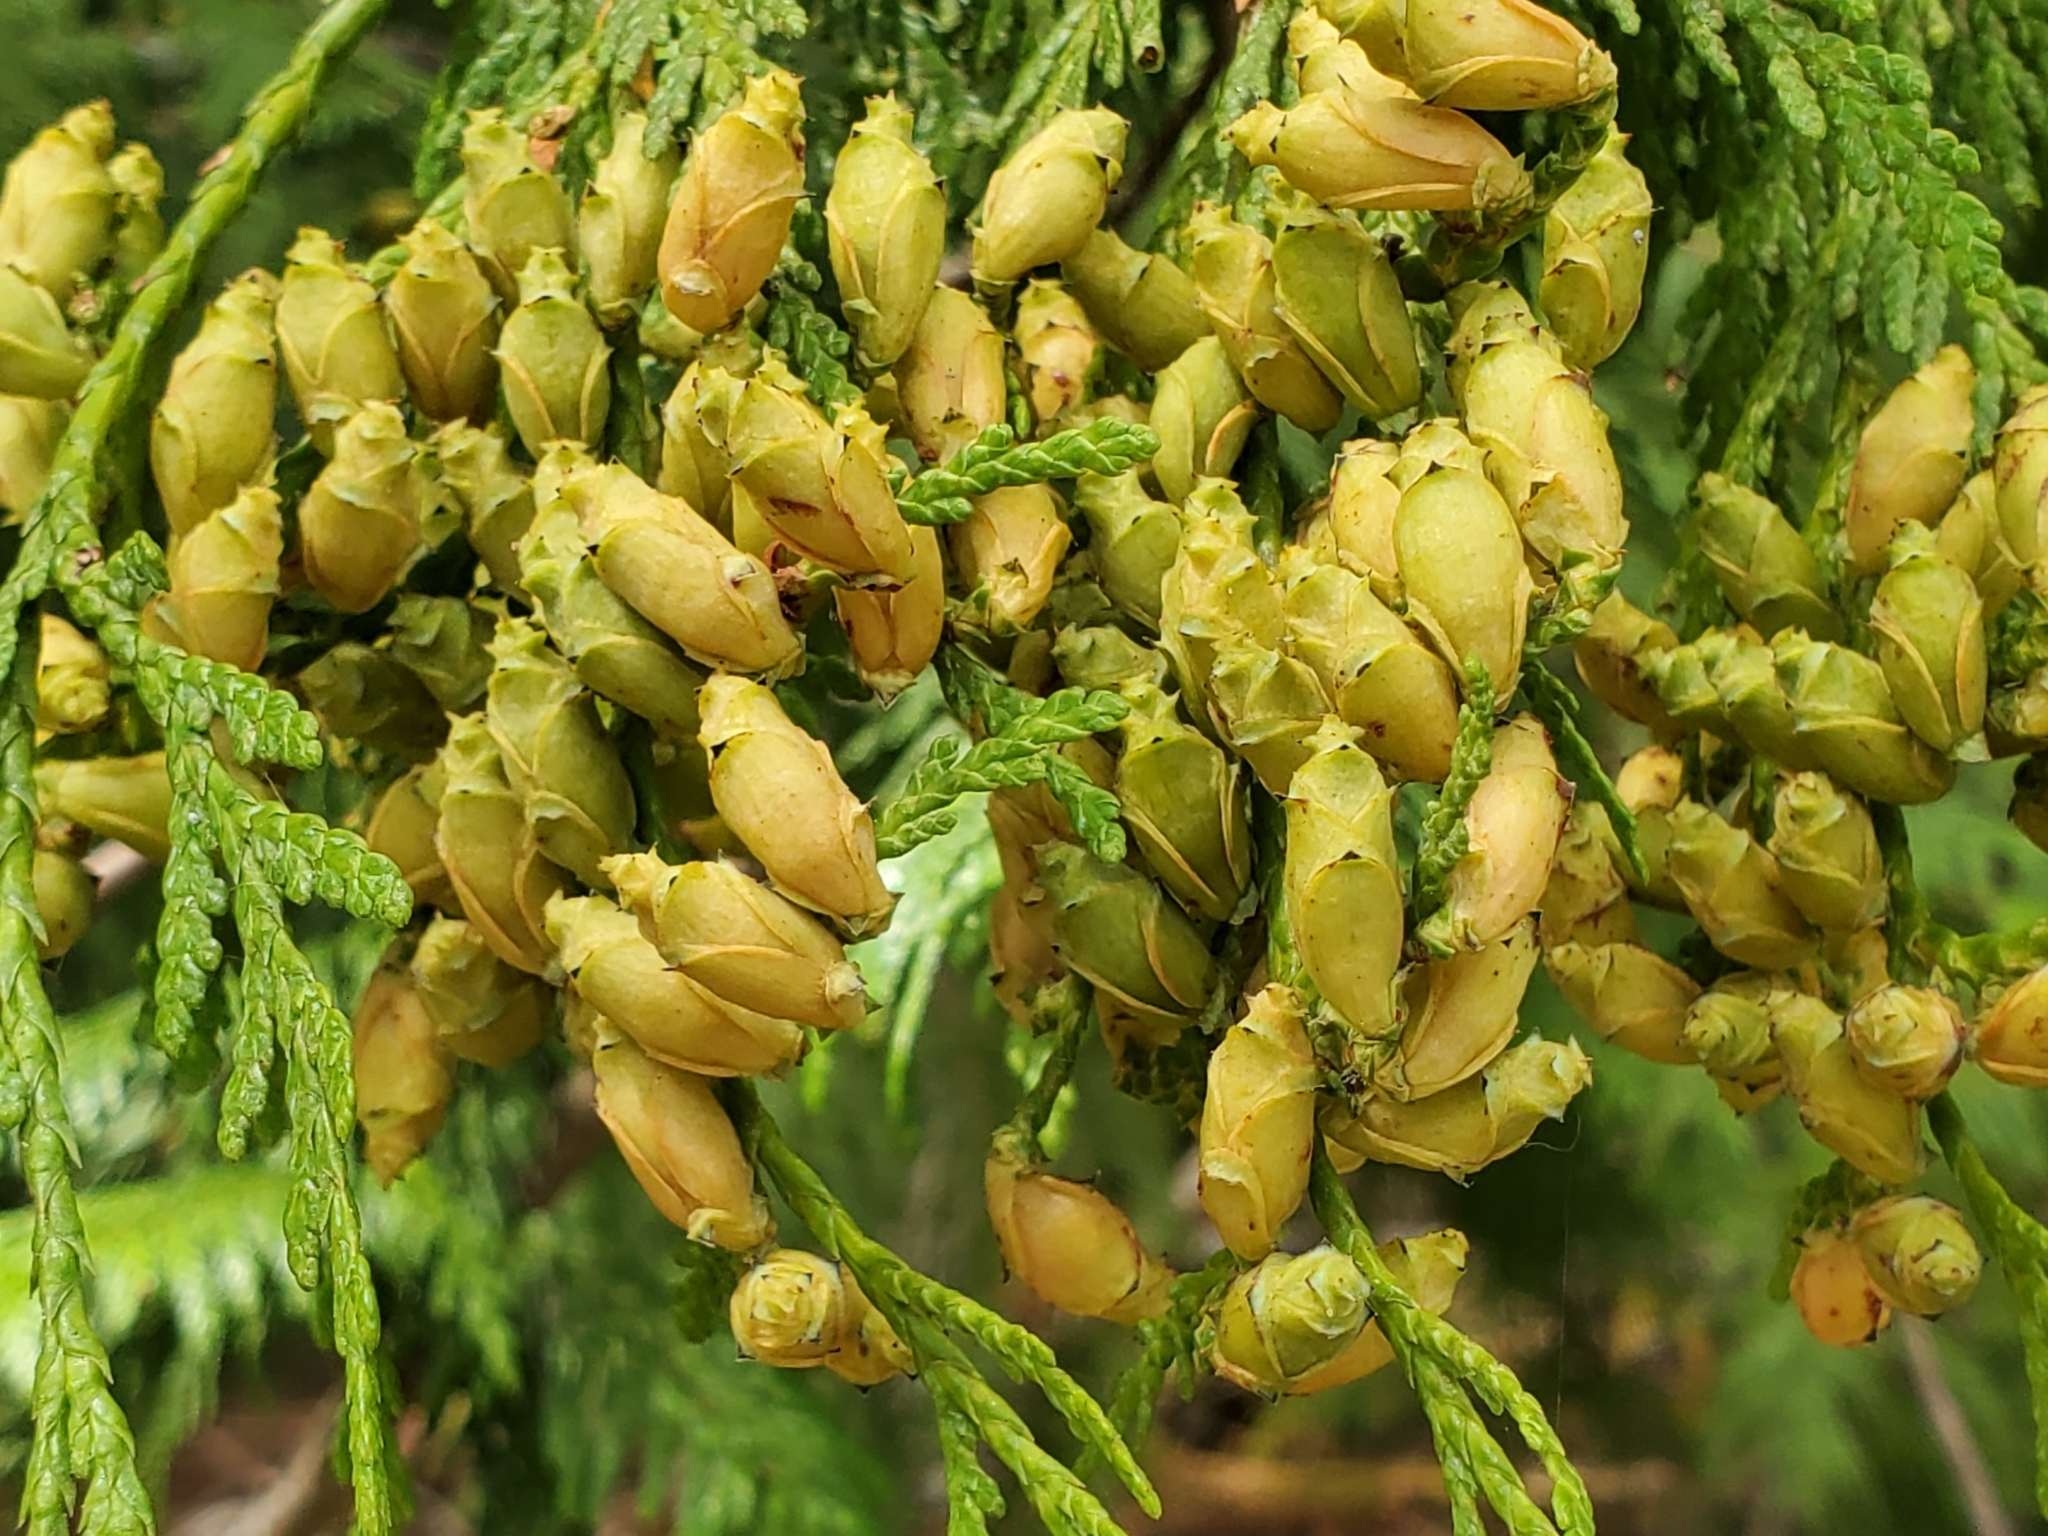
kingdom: Plantae
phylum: Tracheophyta
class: Pinopsida
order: Pinales
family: Cupressaceae
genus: Thuja
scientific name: Thuja plicata
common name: Western red-cedar
